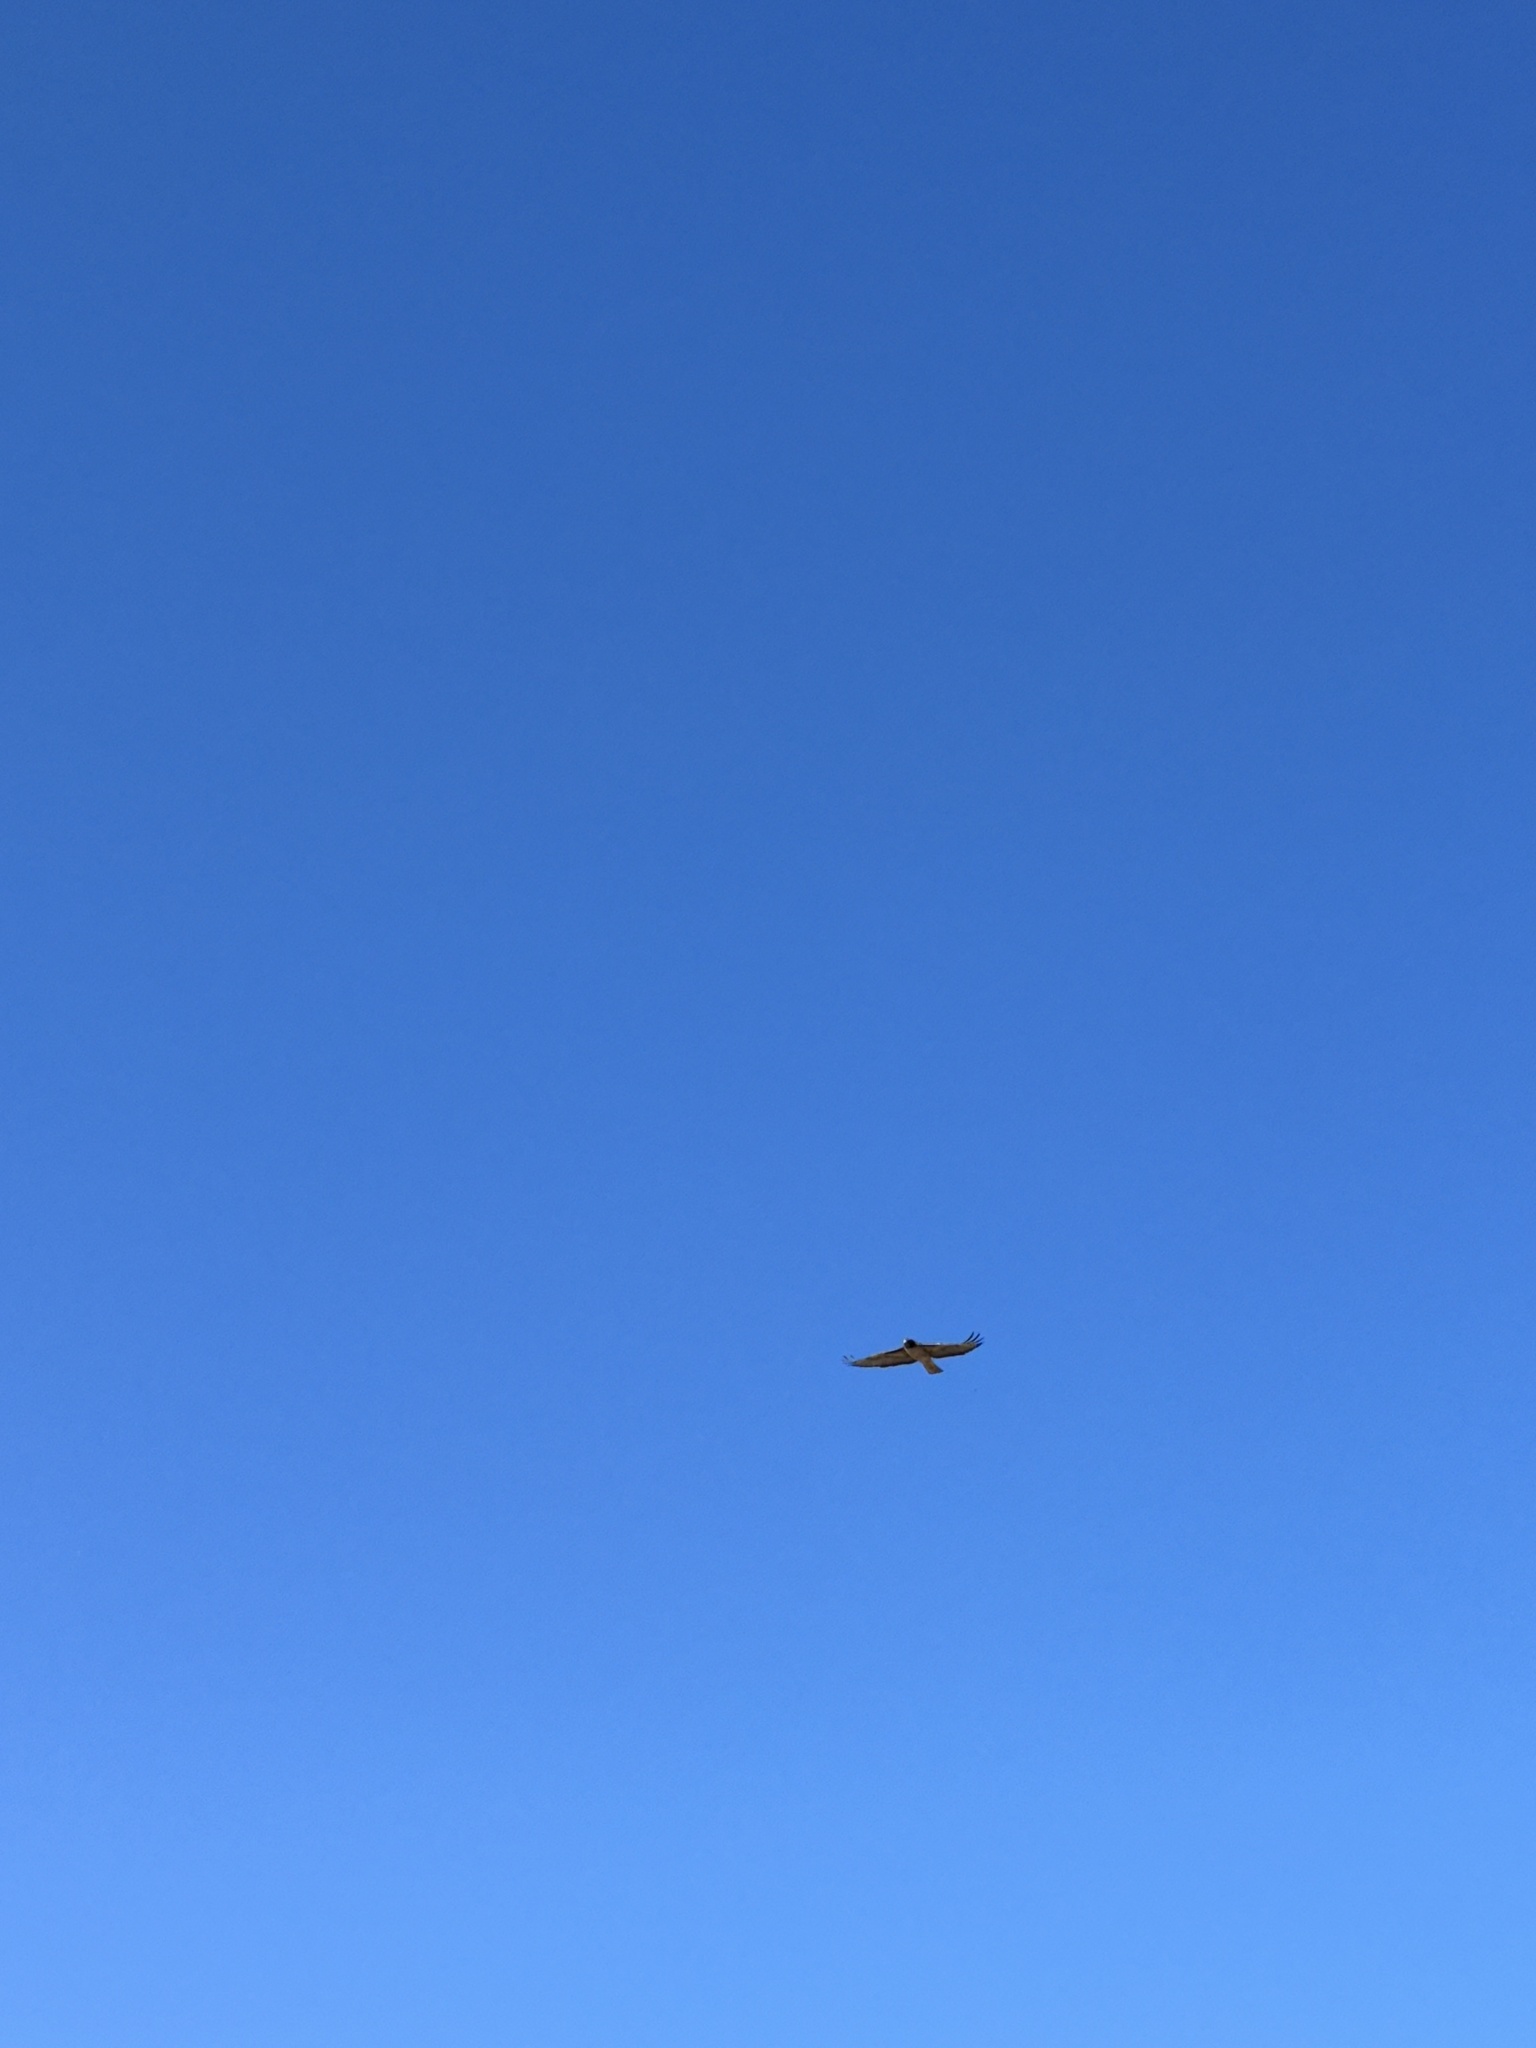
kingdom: Animalia
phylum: Chordata
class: Aves
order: Accipitriformes
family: Accipitridae
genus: Buteo
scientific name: Buteo jamaicensis
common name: Red-tailed hawk
